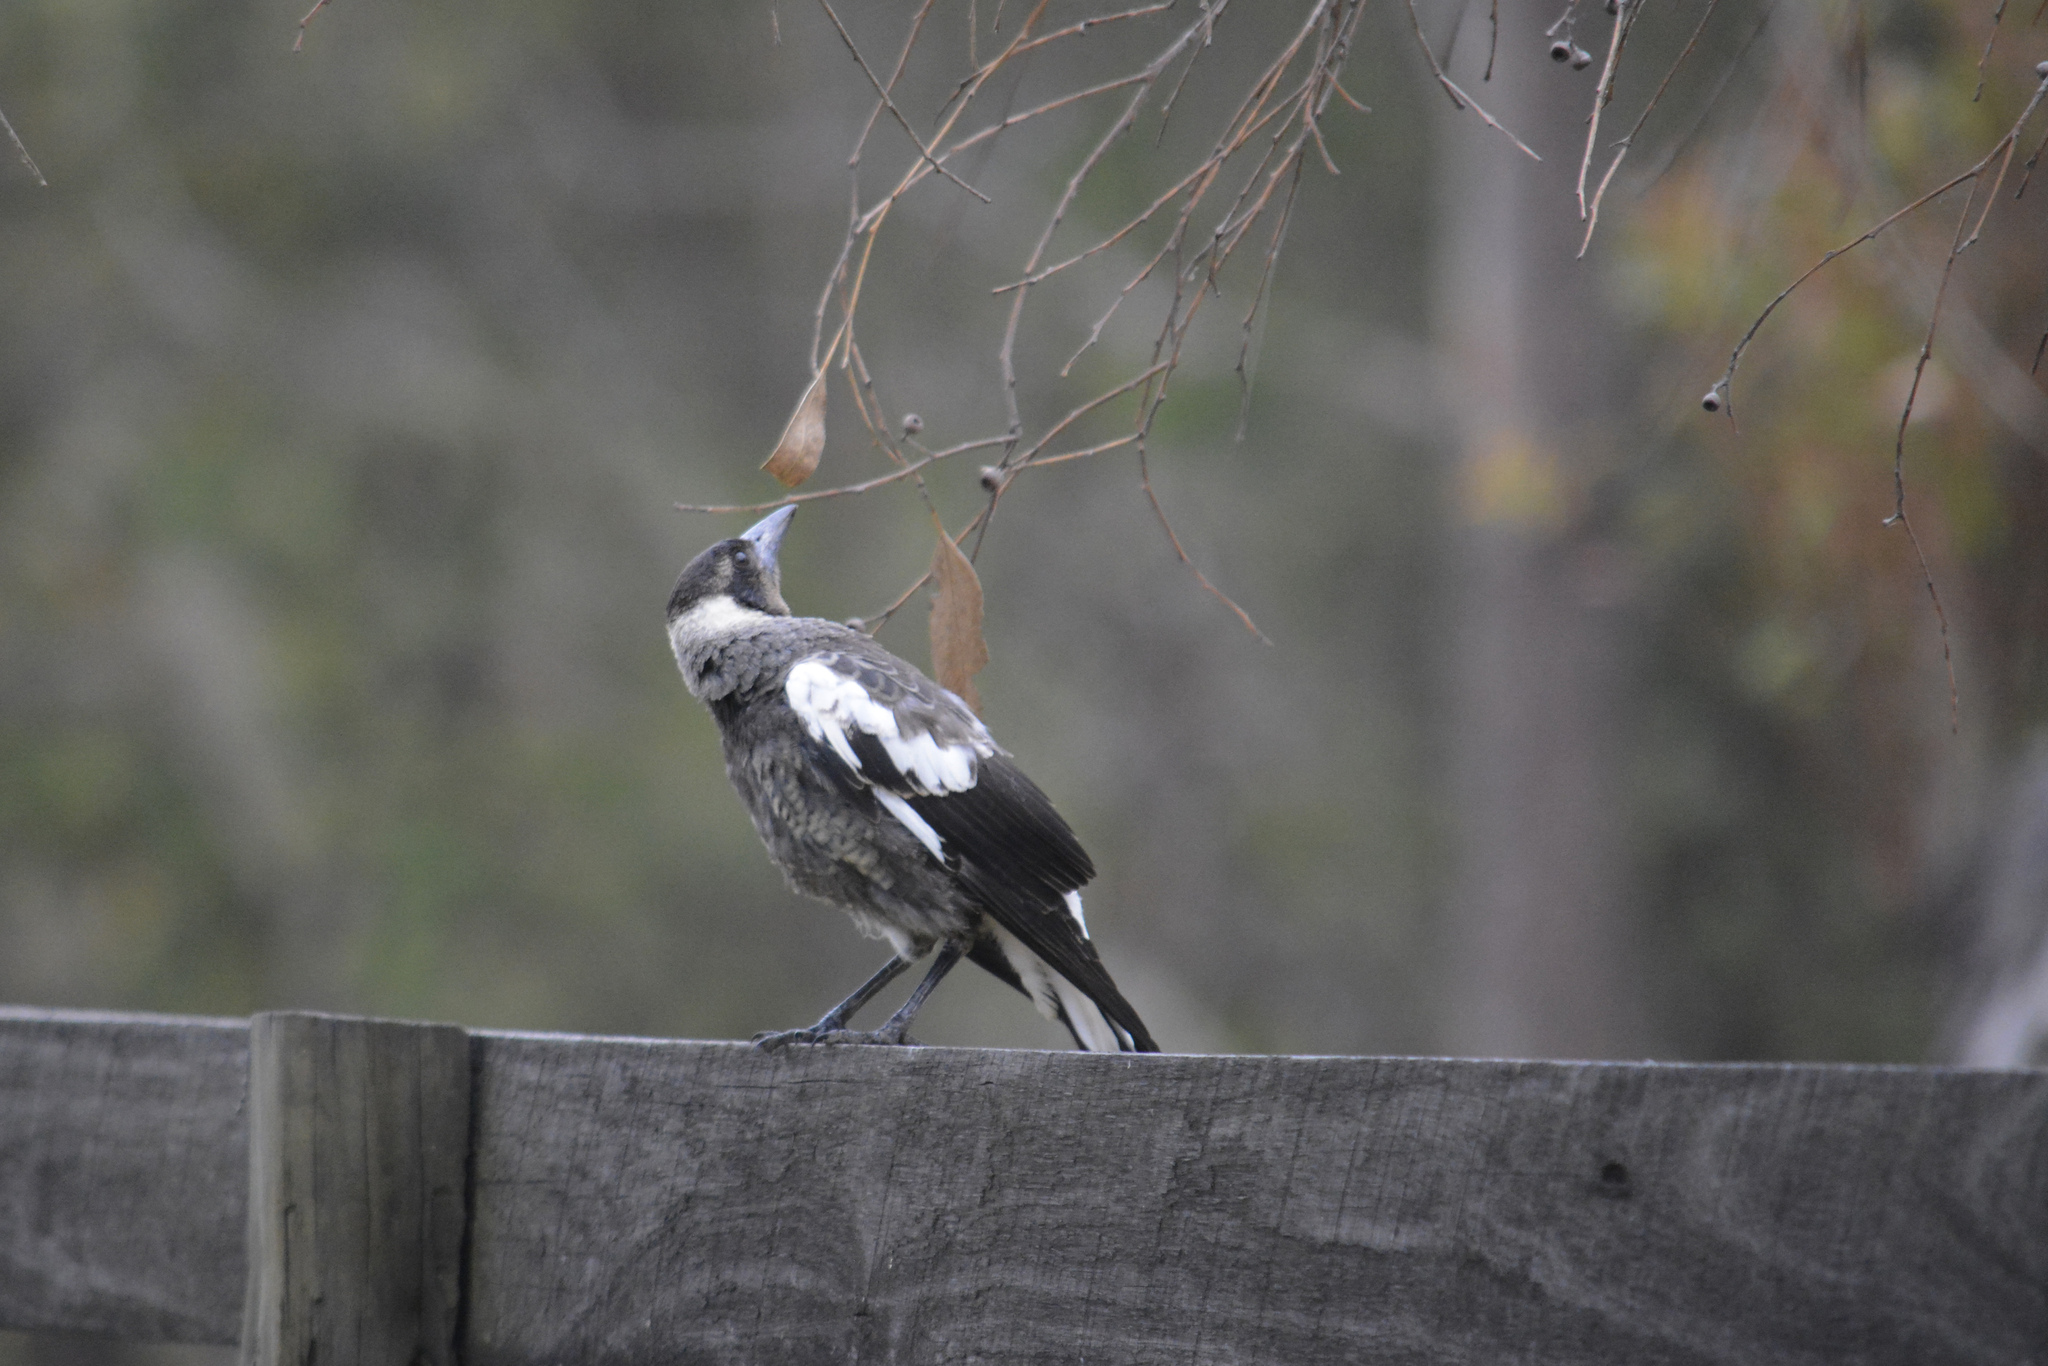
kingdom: Animalia
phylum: Chordata
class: Aves
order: Passeriformes
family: Cracticidae
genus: Gymnorhina
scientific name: Gymnorhina tibicen
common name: Australian magpie
